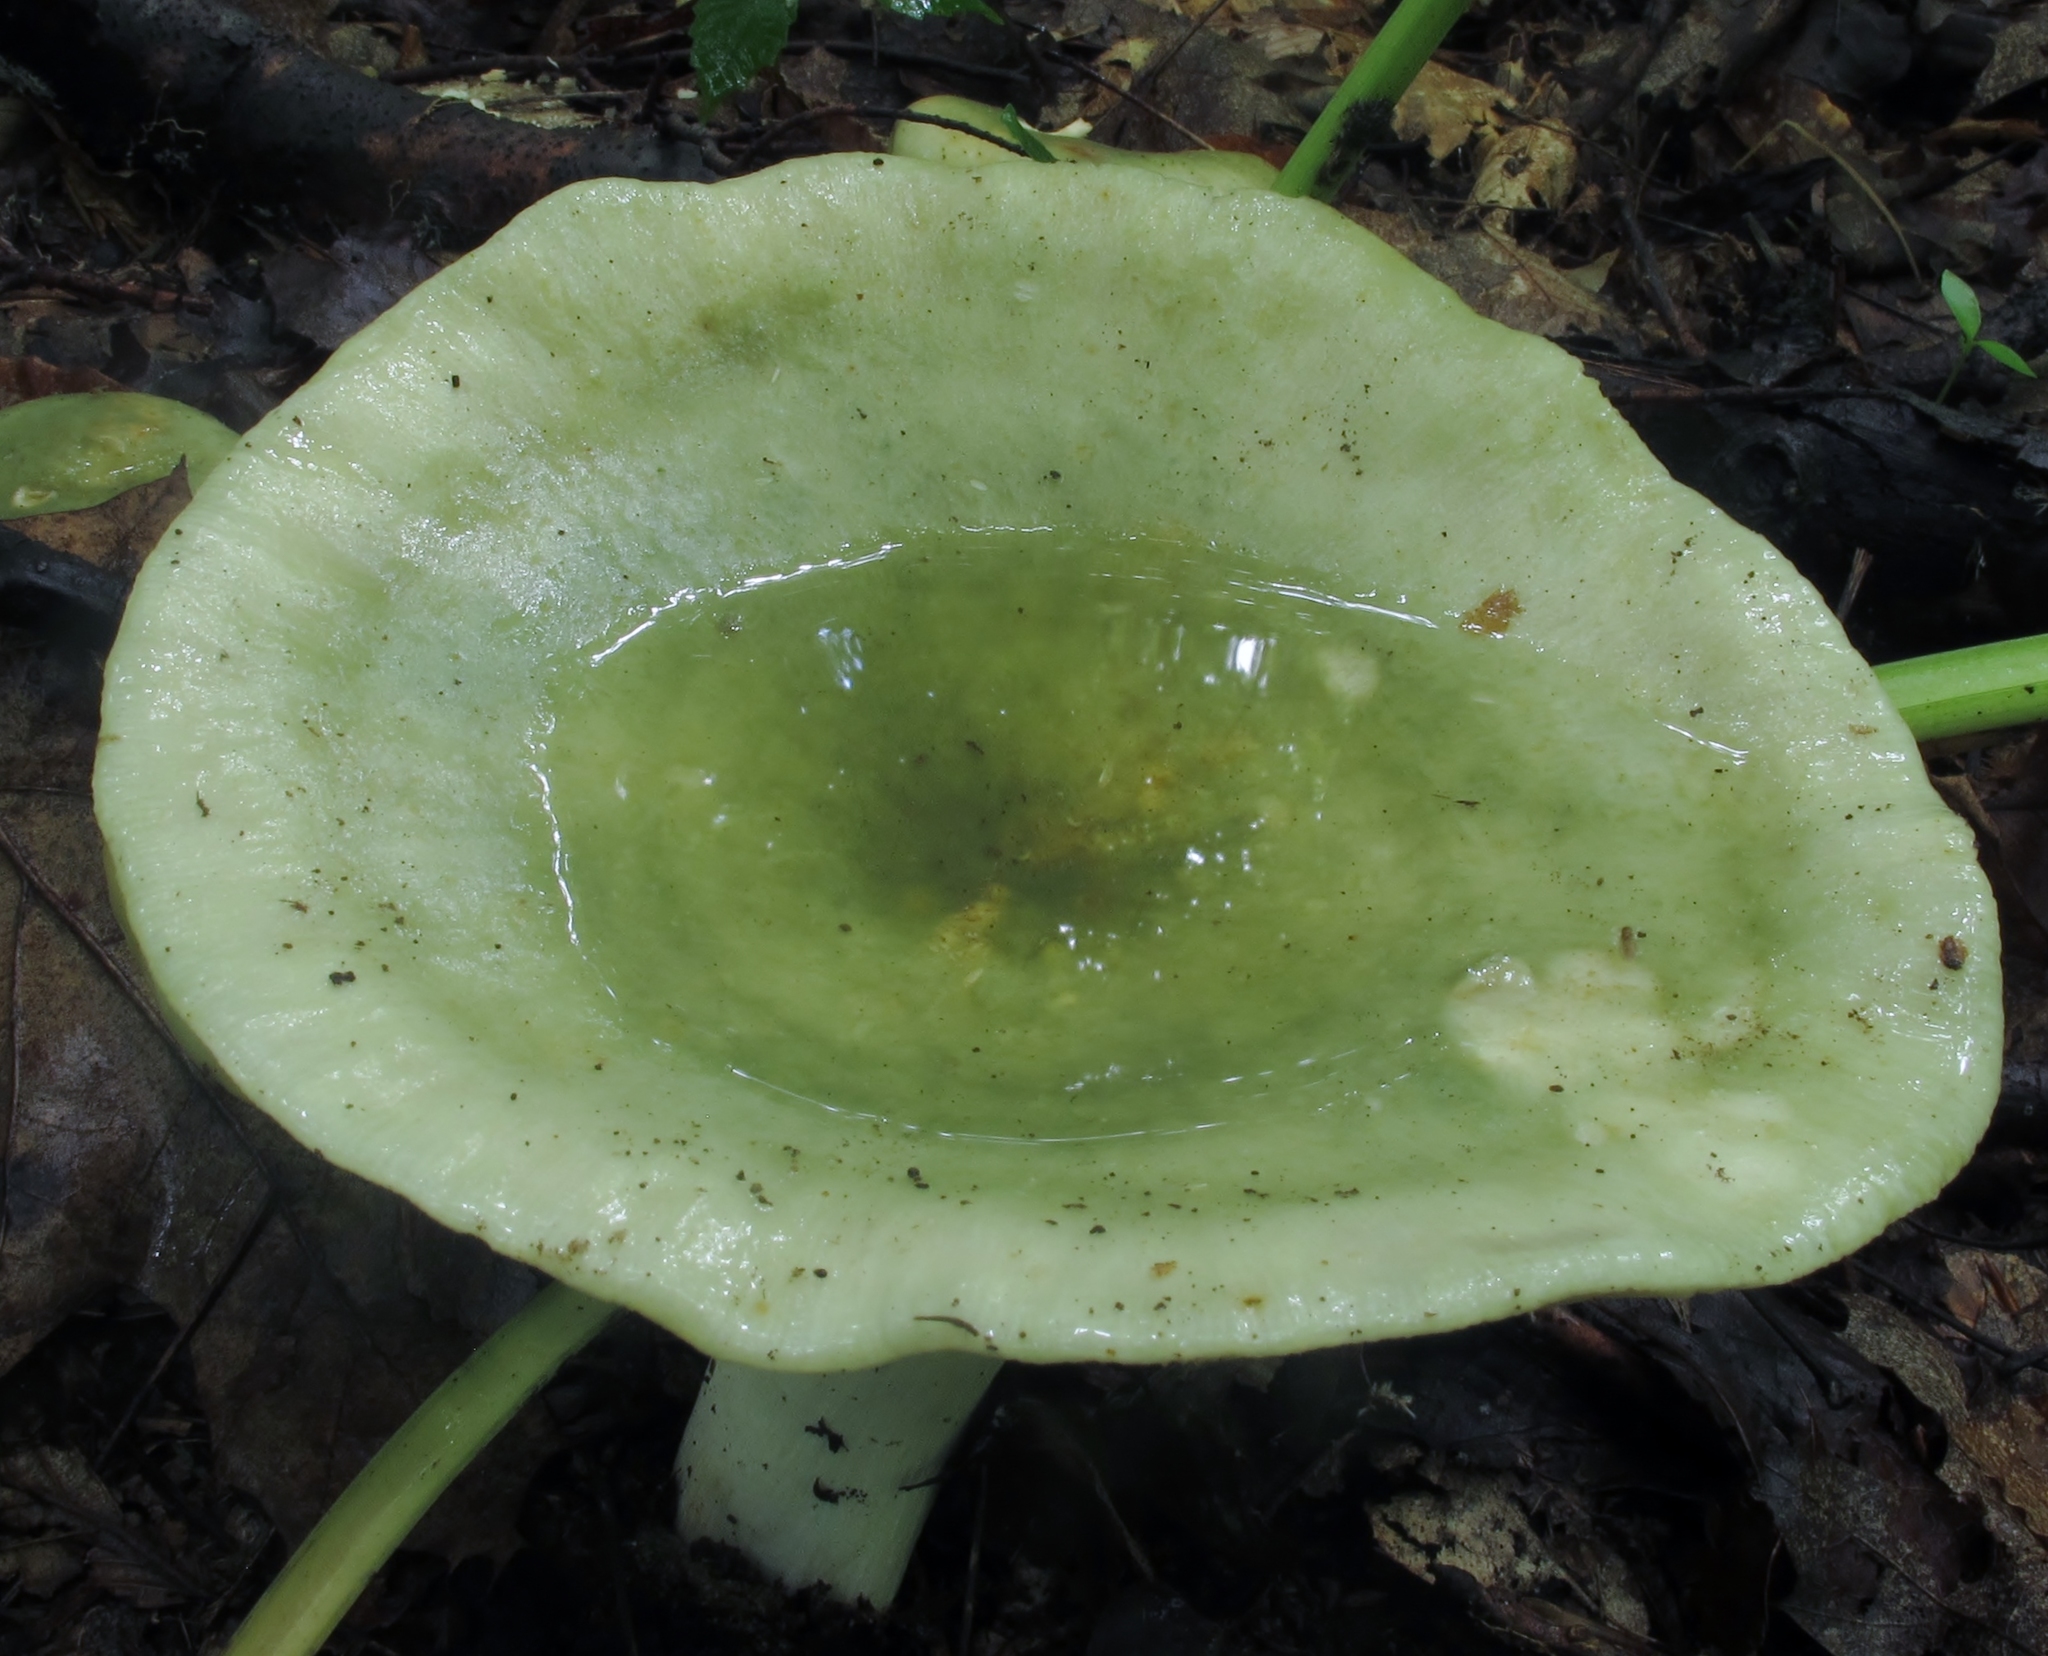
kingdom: Fungi
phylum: Basidiomycota
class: Agaricomycetes
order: Russulales
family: Russulaceae
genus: Russula
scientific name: Russula cyanoxantha
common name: Charcoal burner
